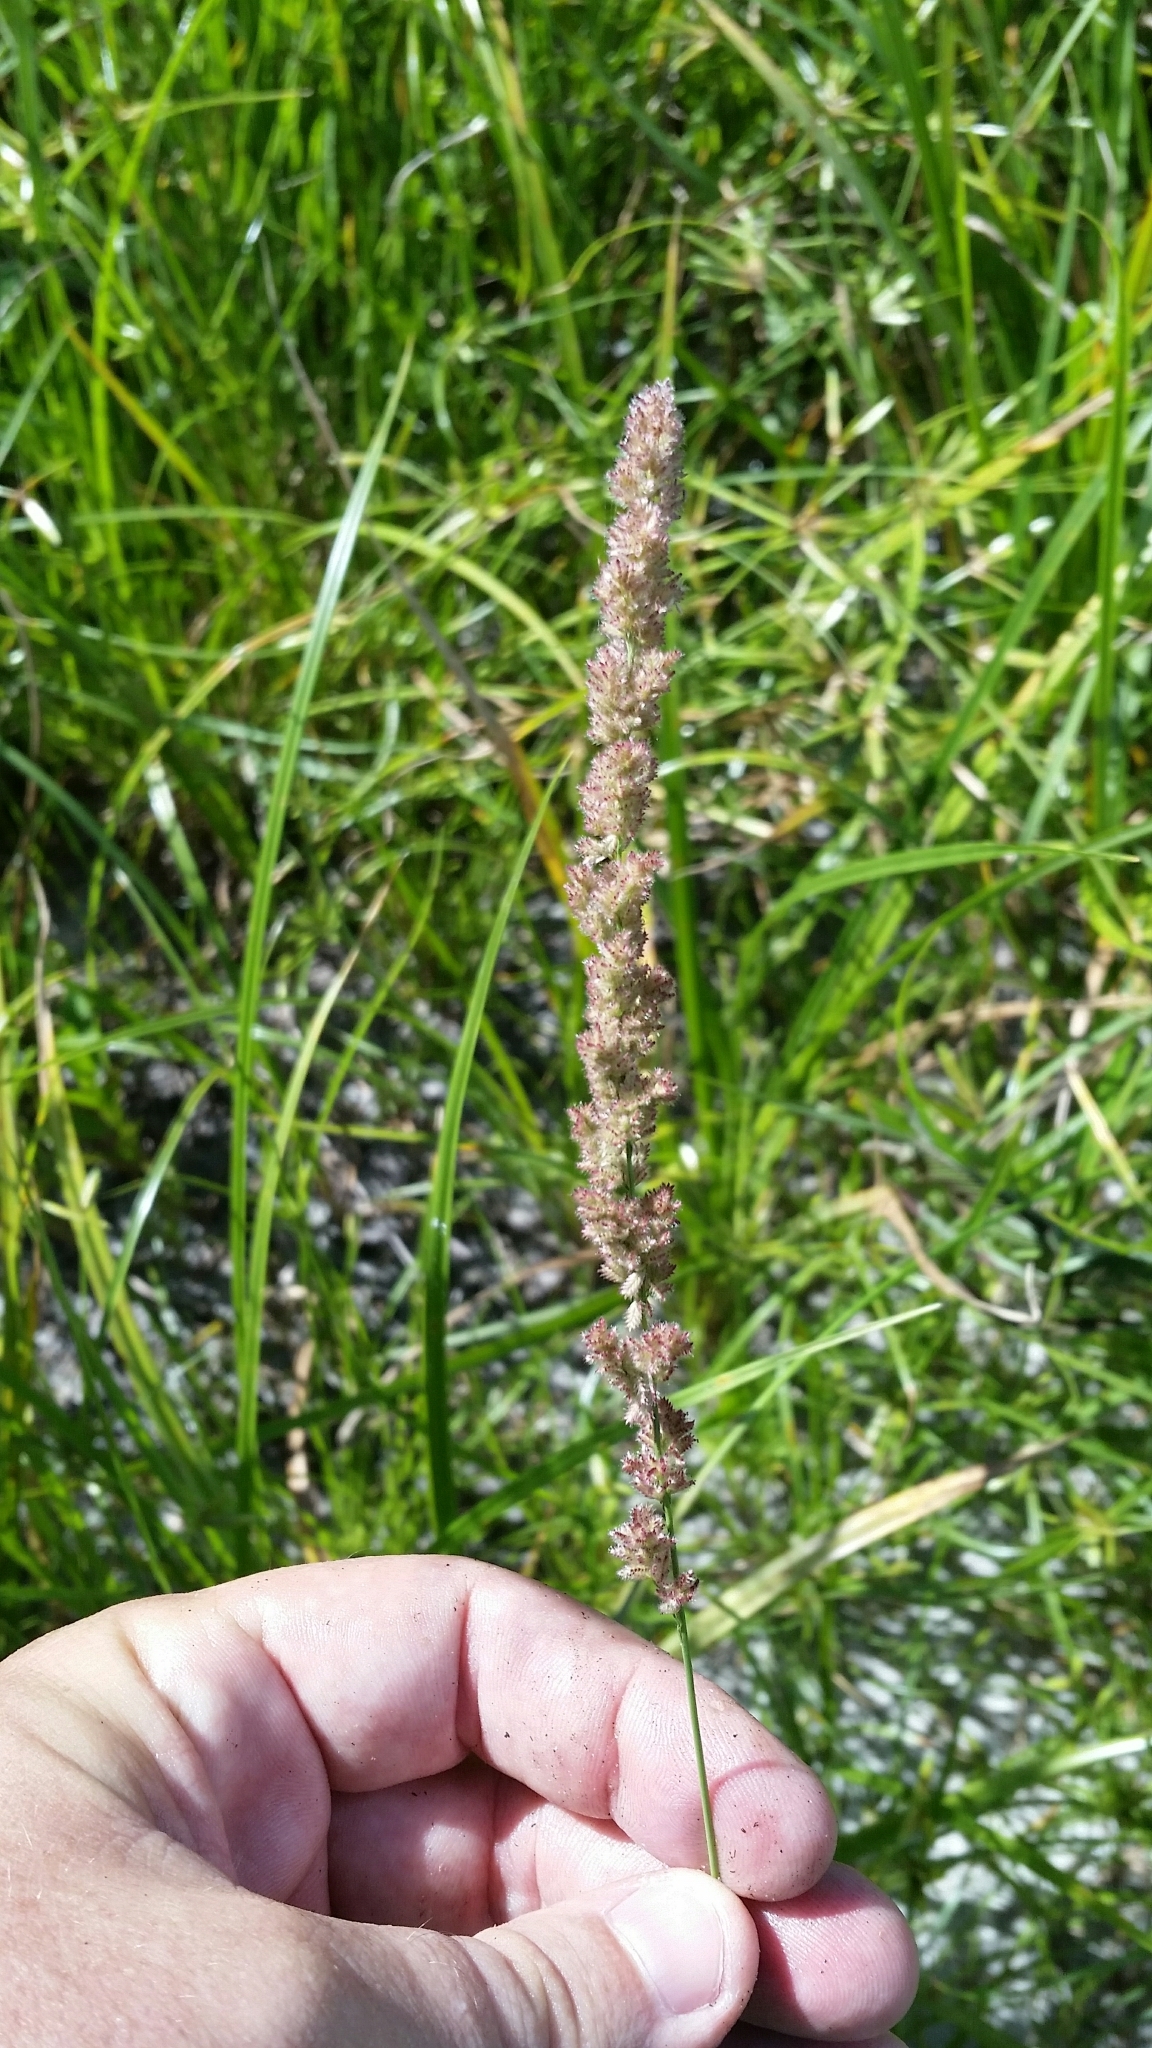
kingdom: Plantae
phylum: Tracheophyta
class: Liliopsida
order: Poales
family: Poaceae
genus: Eragrostis
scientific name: Eragrostis ciliaris
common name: Gophertail lovegrass
